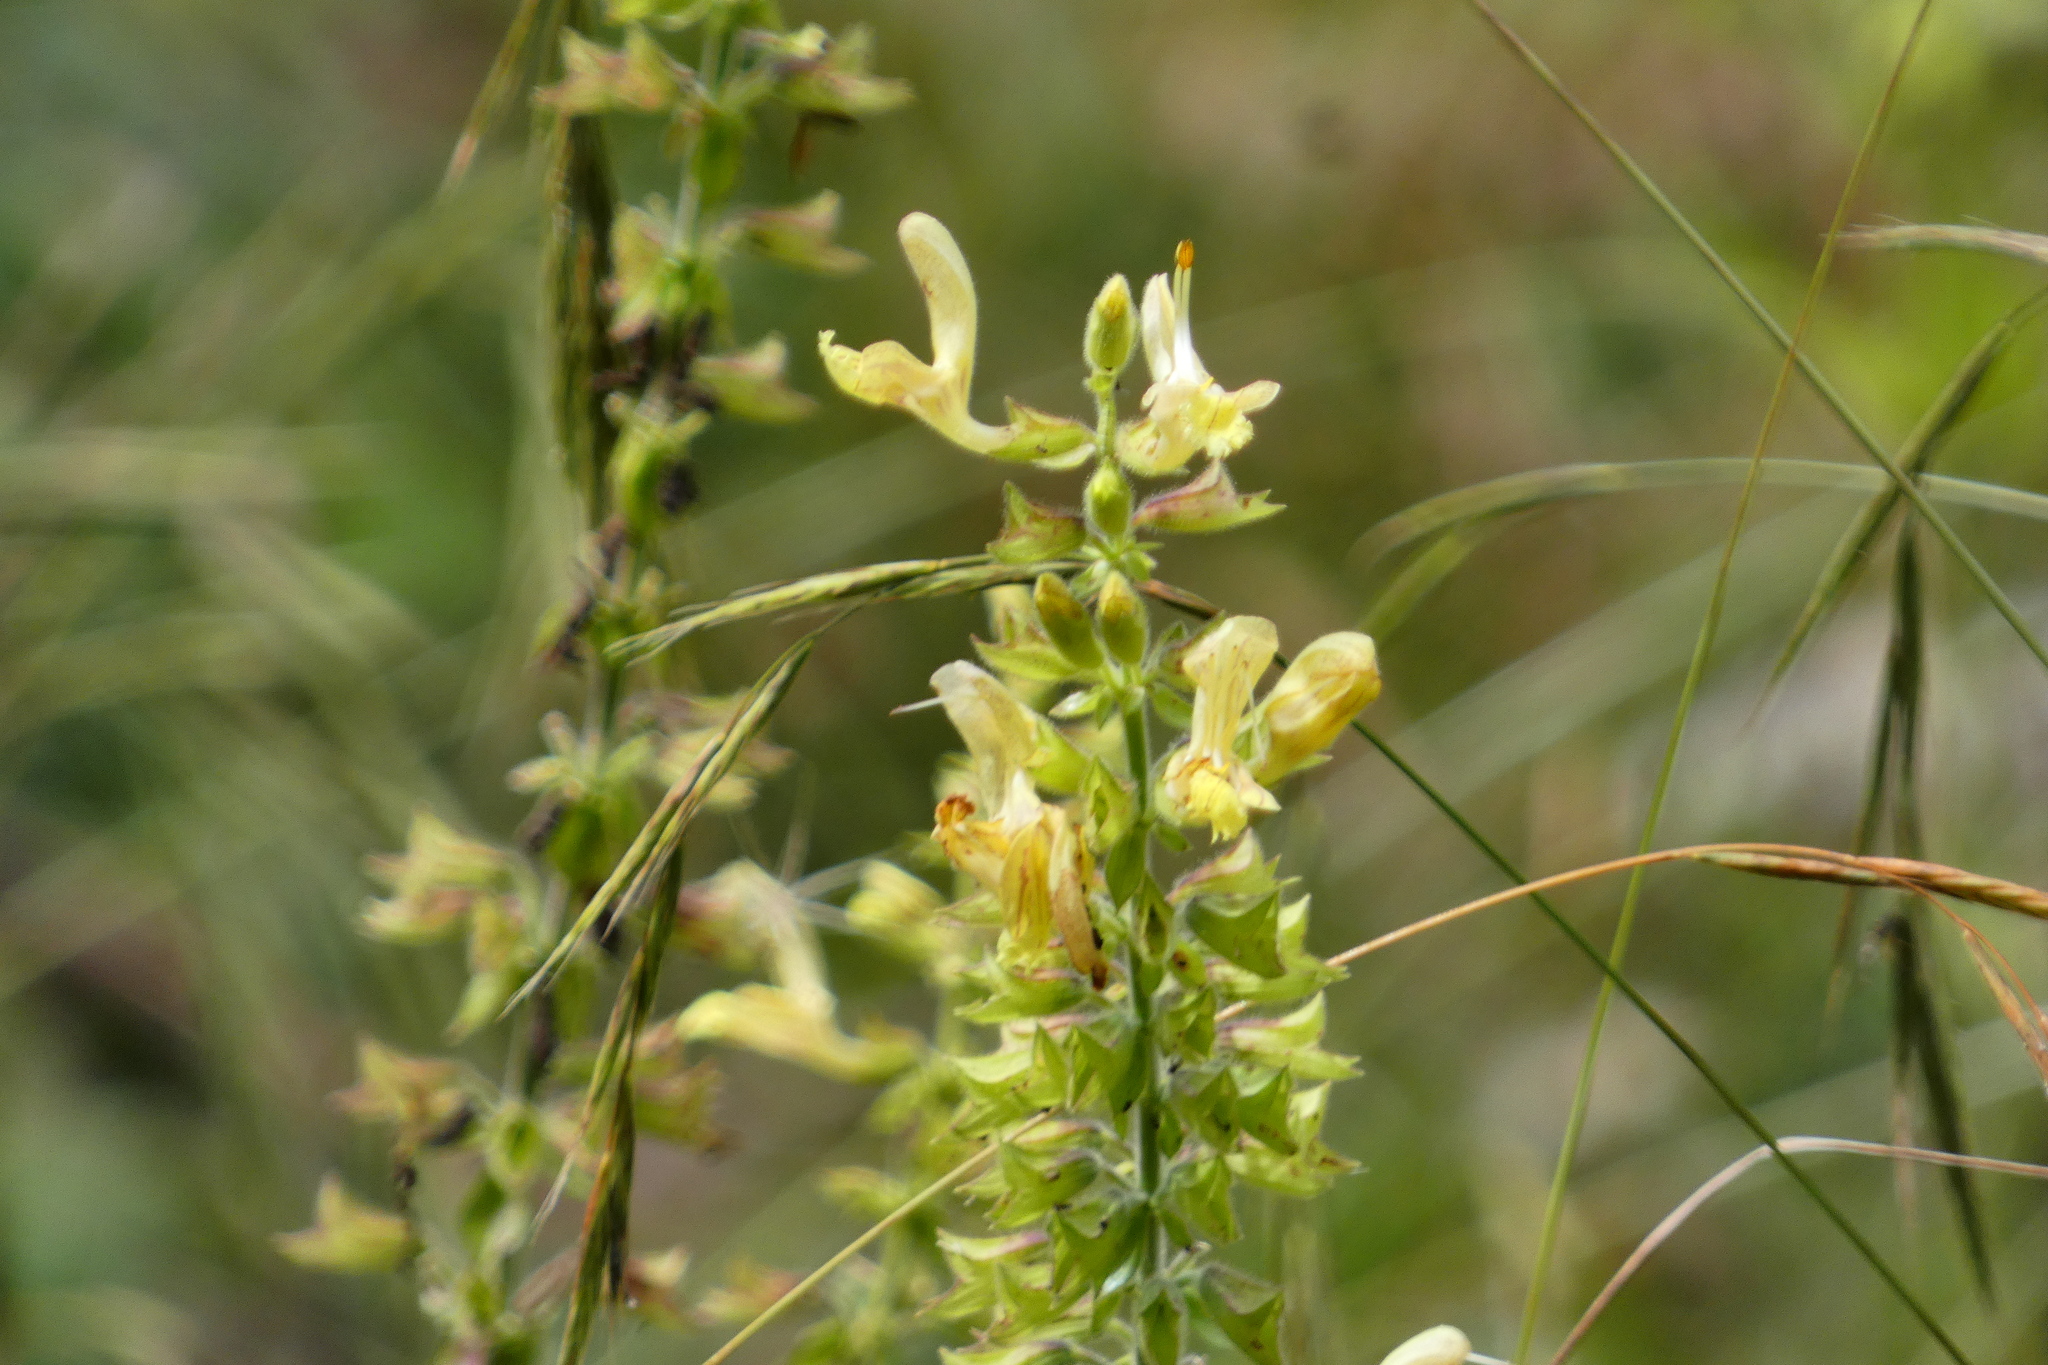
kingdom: Plantae
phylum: Tracheophyta
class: Magnoliopsida
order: Lamiales
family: Lamiaceae
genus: Salvia
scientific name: Salvia glutinosa
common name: Sticky clary
